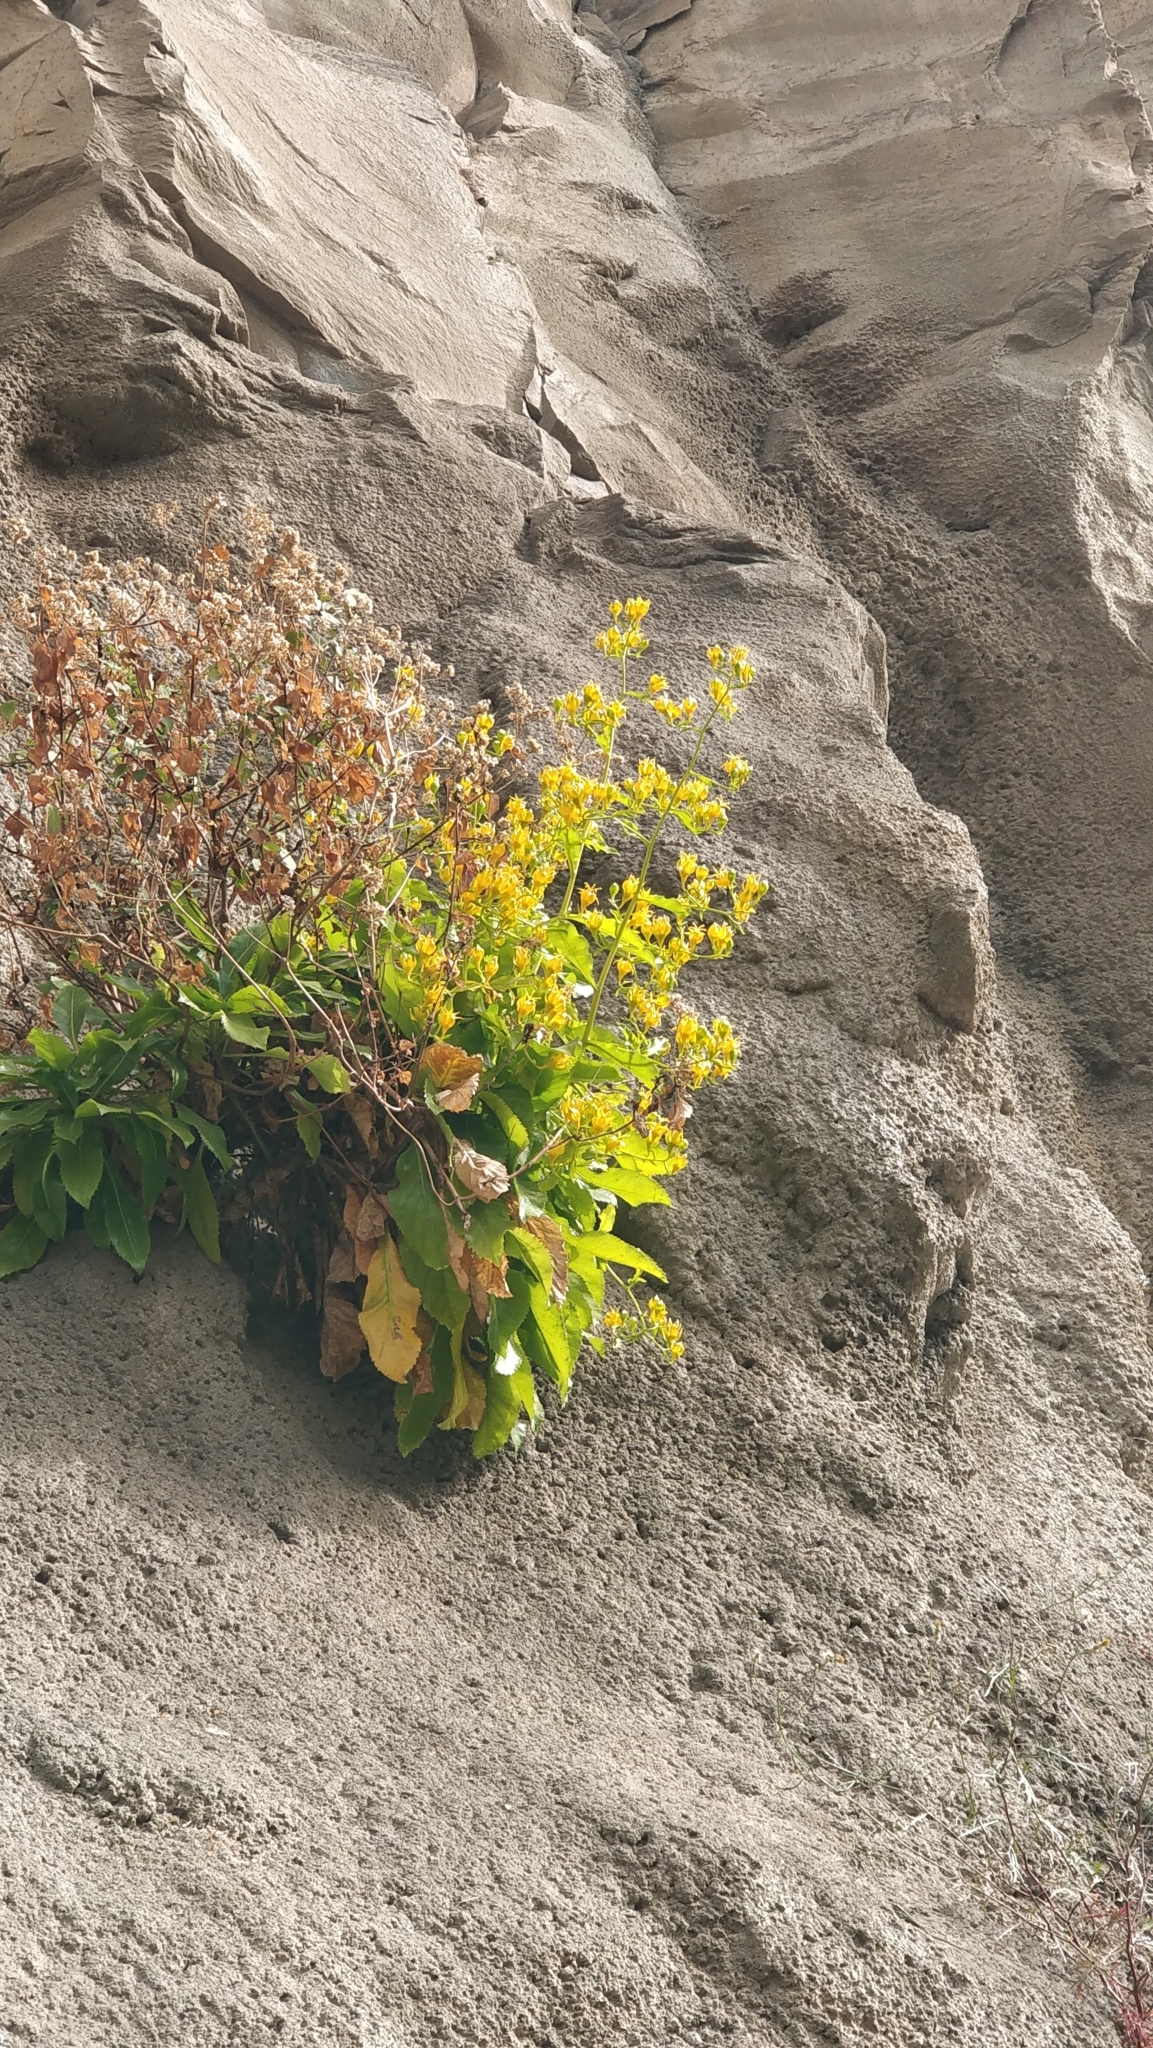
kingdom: Plantae
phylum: Tracheophyta
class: Magnoliopsida
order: Asterales
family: Campanulaceae
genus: Musschia
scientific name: Musschia aurea
